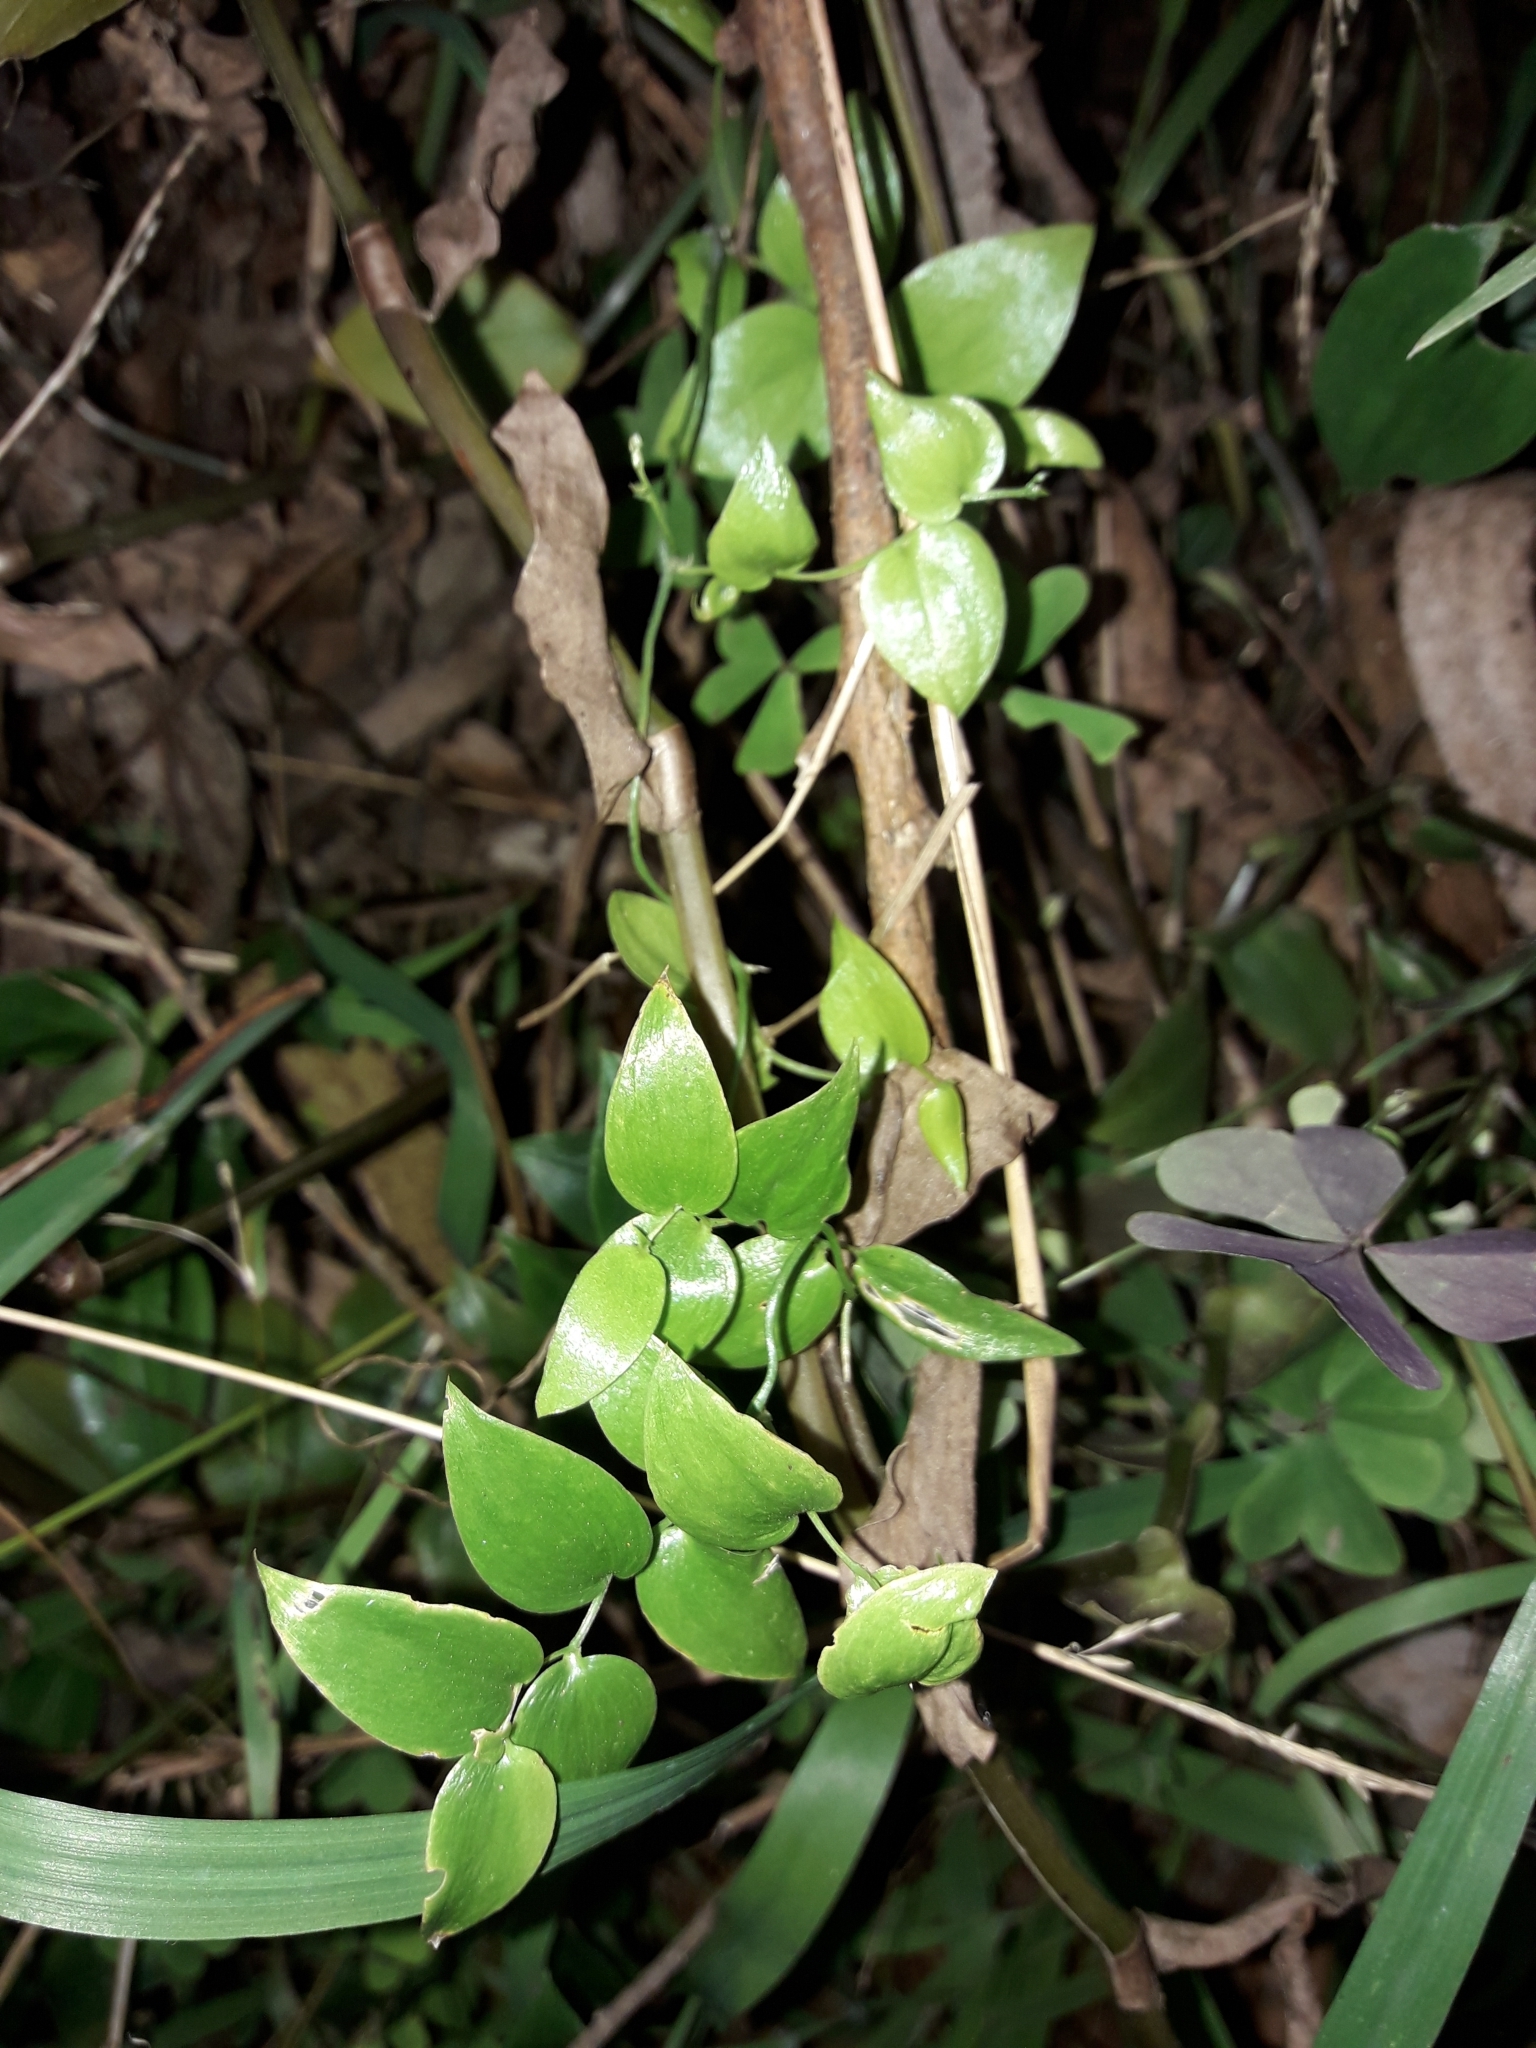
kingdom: Plantae
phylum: Tracheophyta
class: Liliopsida
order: Asparagales
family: Asparagaceae
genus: Asparagus
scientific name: Asparagus asparagoides
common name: African asparagus fern
